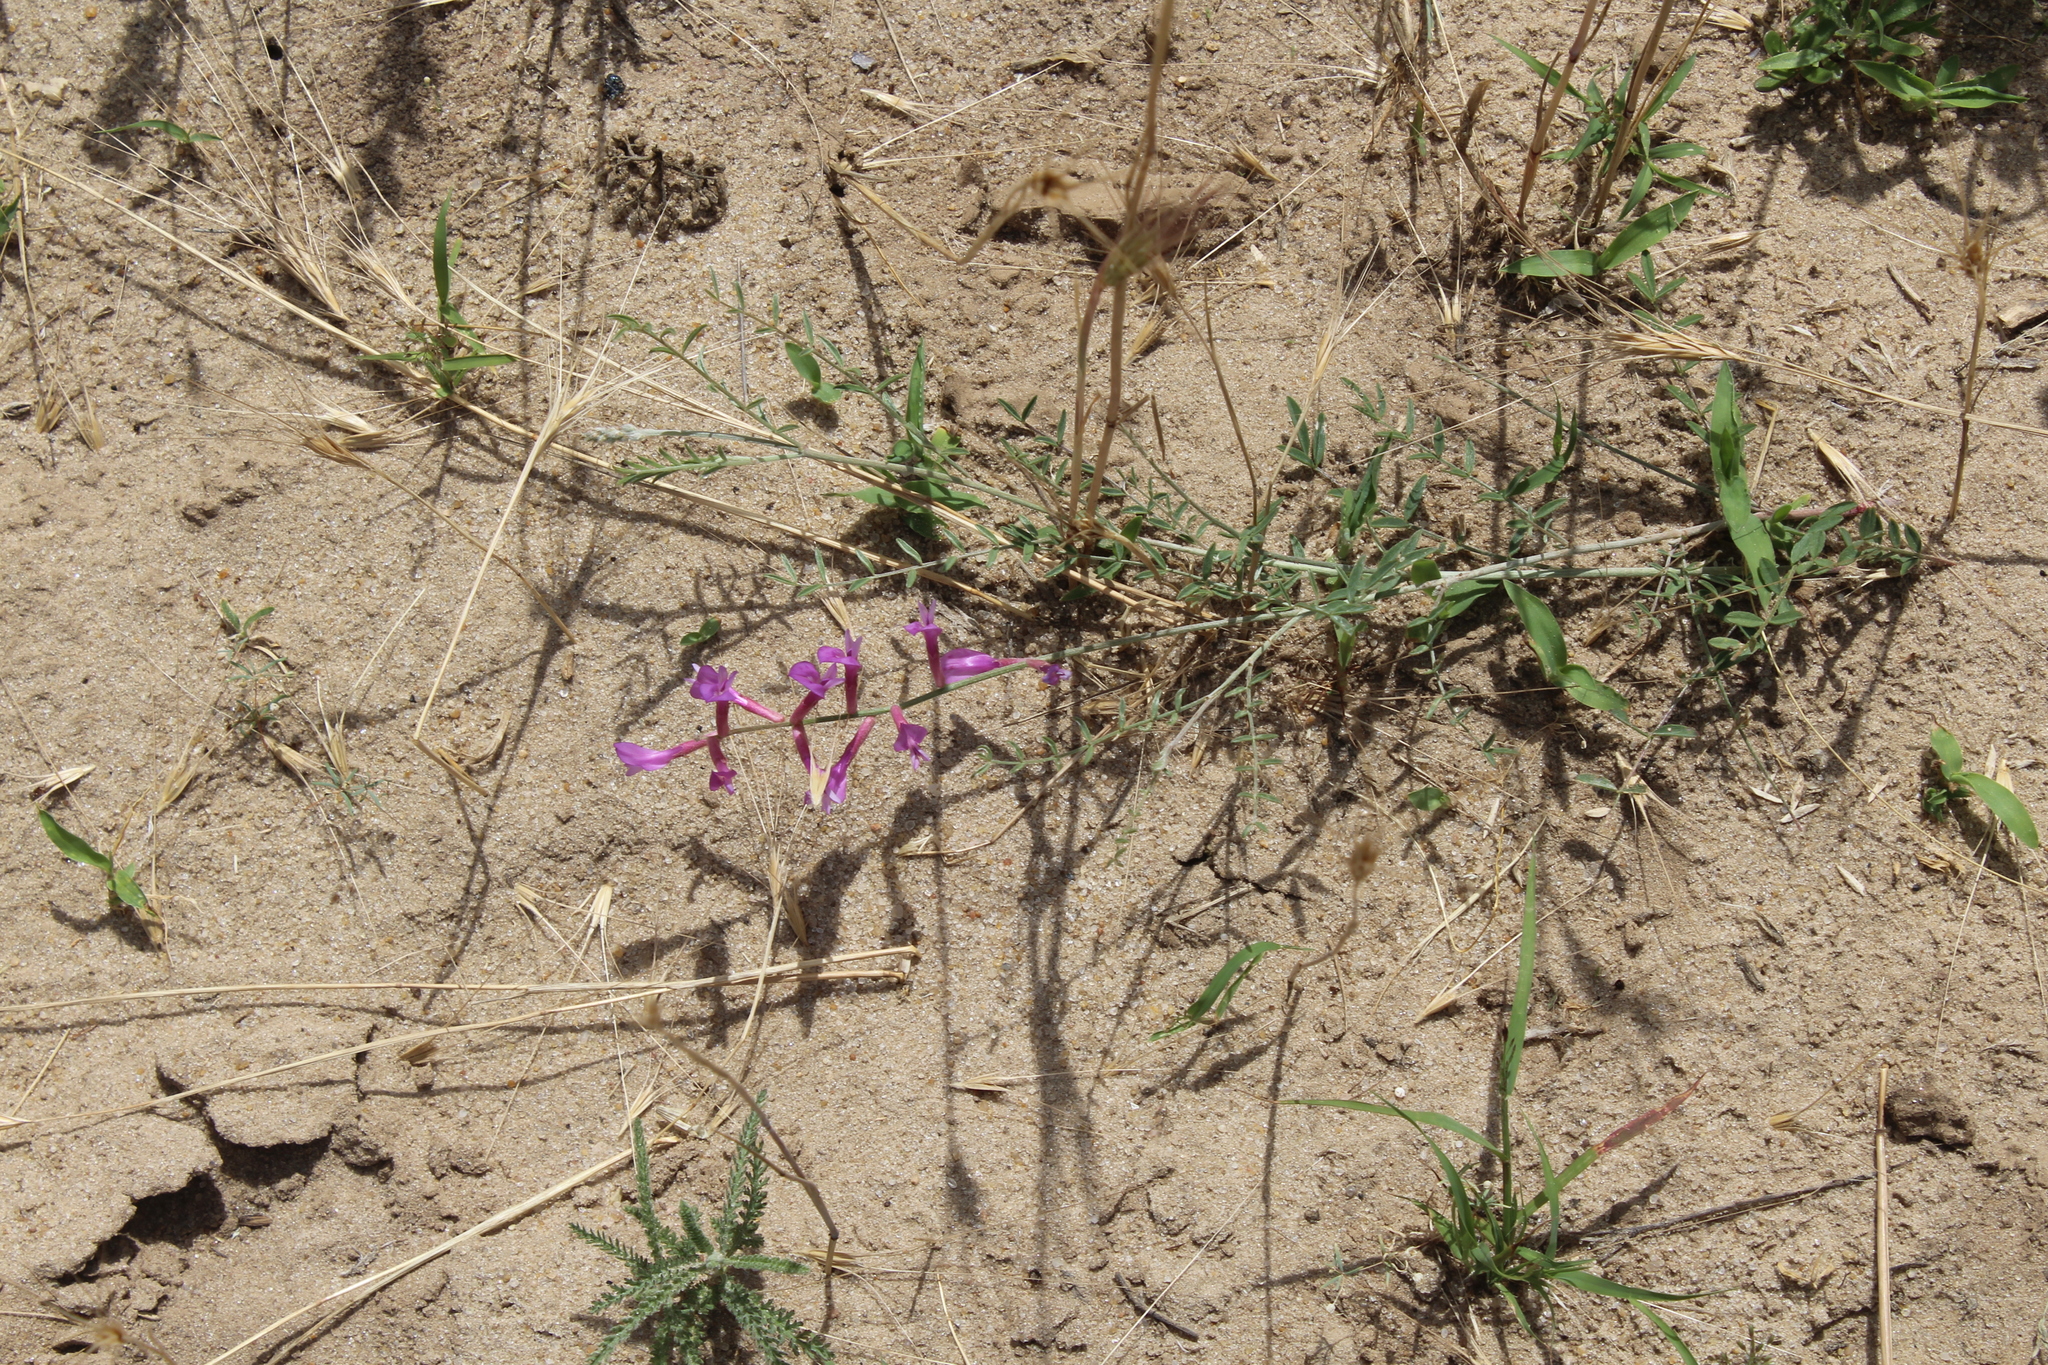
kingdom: Plantae
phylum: Tracheophyta
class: Magnoliopsida
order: Fabales
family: Fabaceae
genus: Astragalus
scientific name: Astragalus varius
